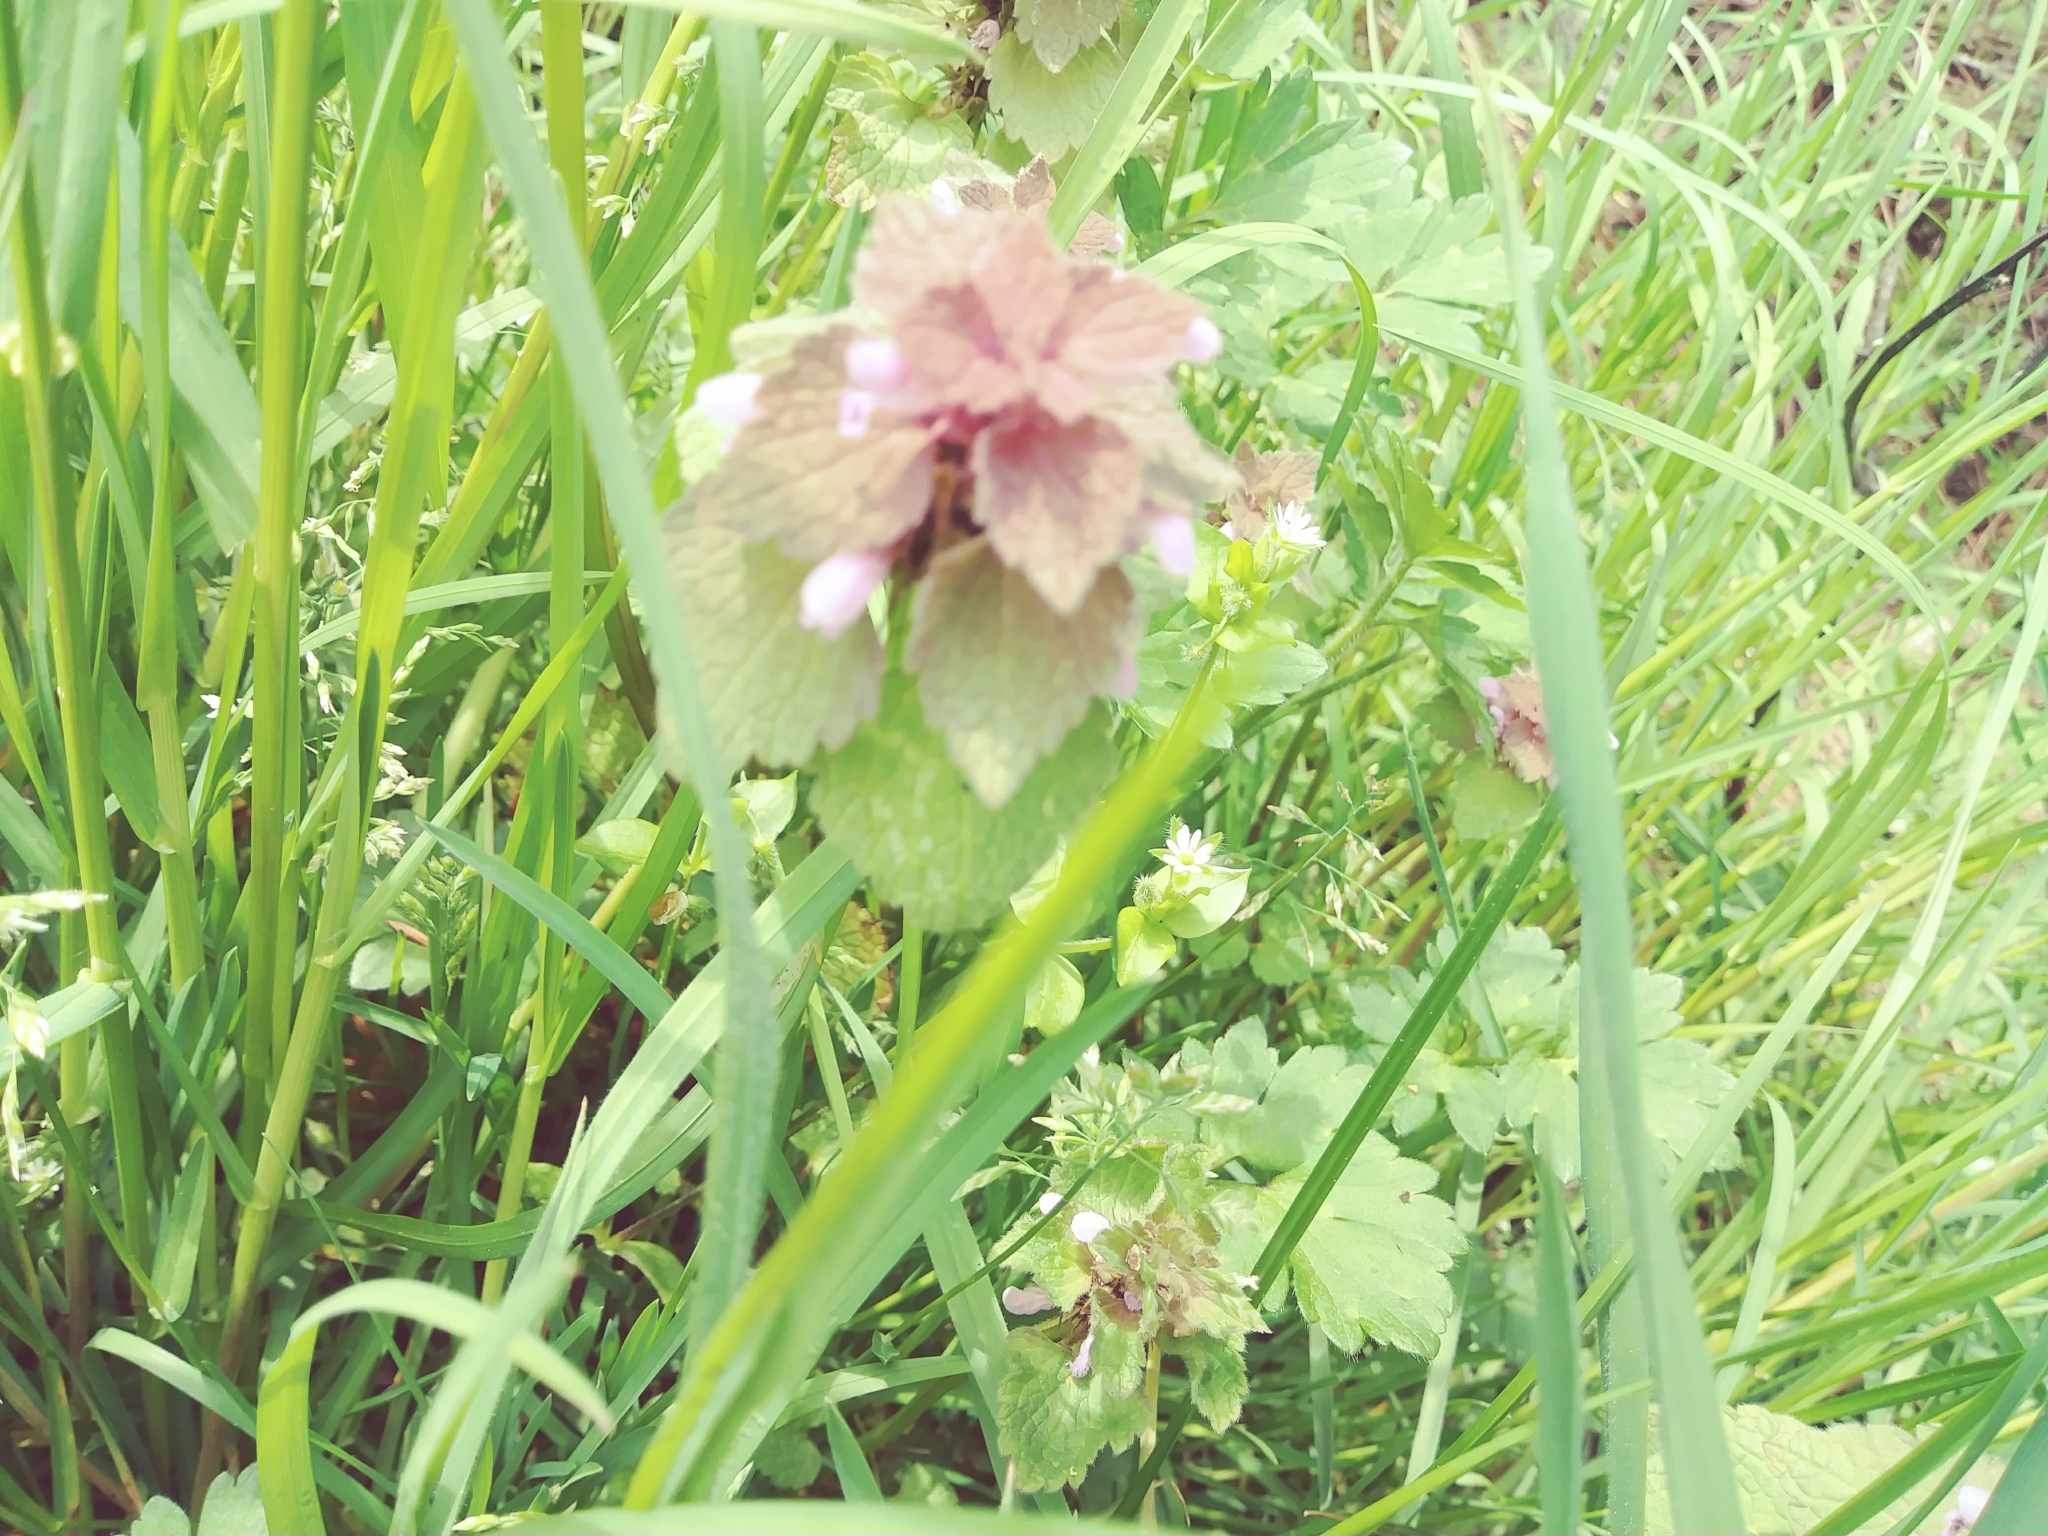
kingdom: Plantae
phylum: Tracheophyta
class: Magnoliopsida
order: Lamiales
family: Lamiaceae
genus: Lamium
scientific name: Lamium purpureum
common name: Red dead-nettle
